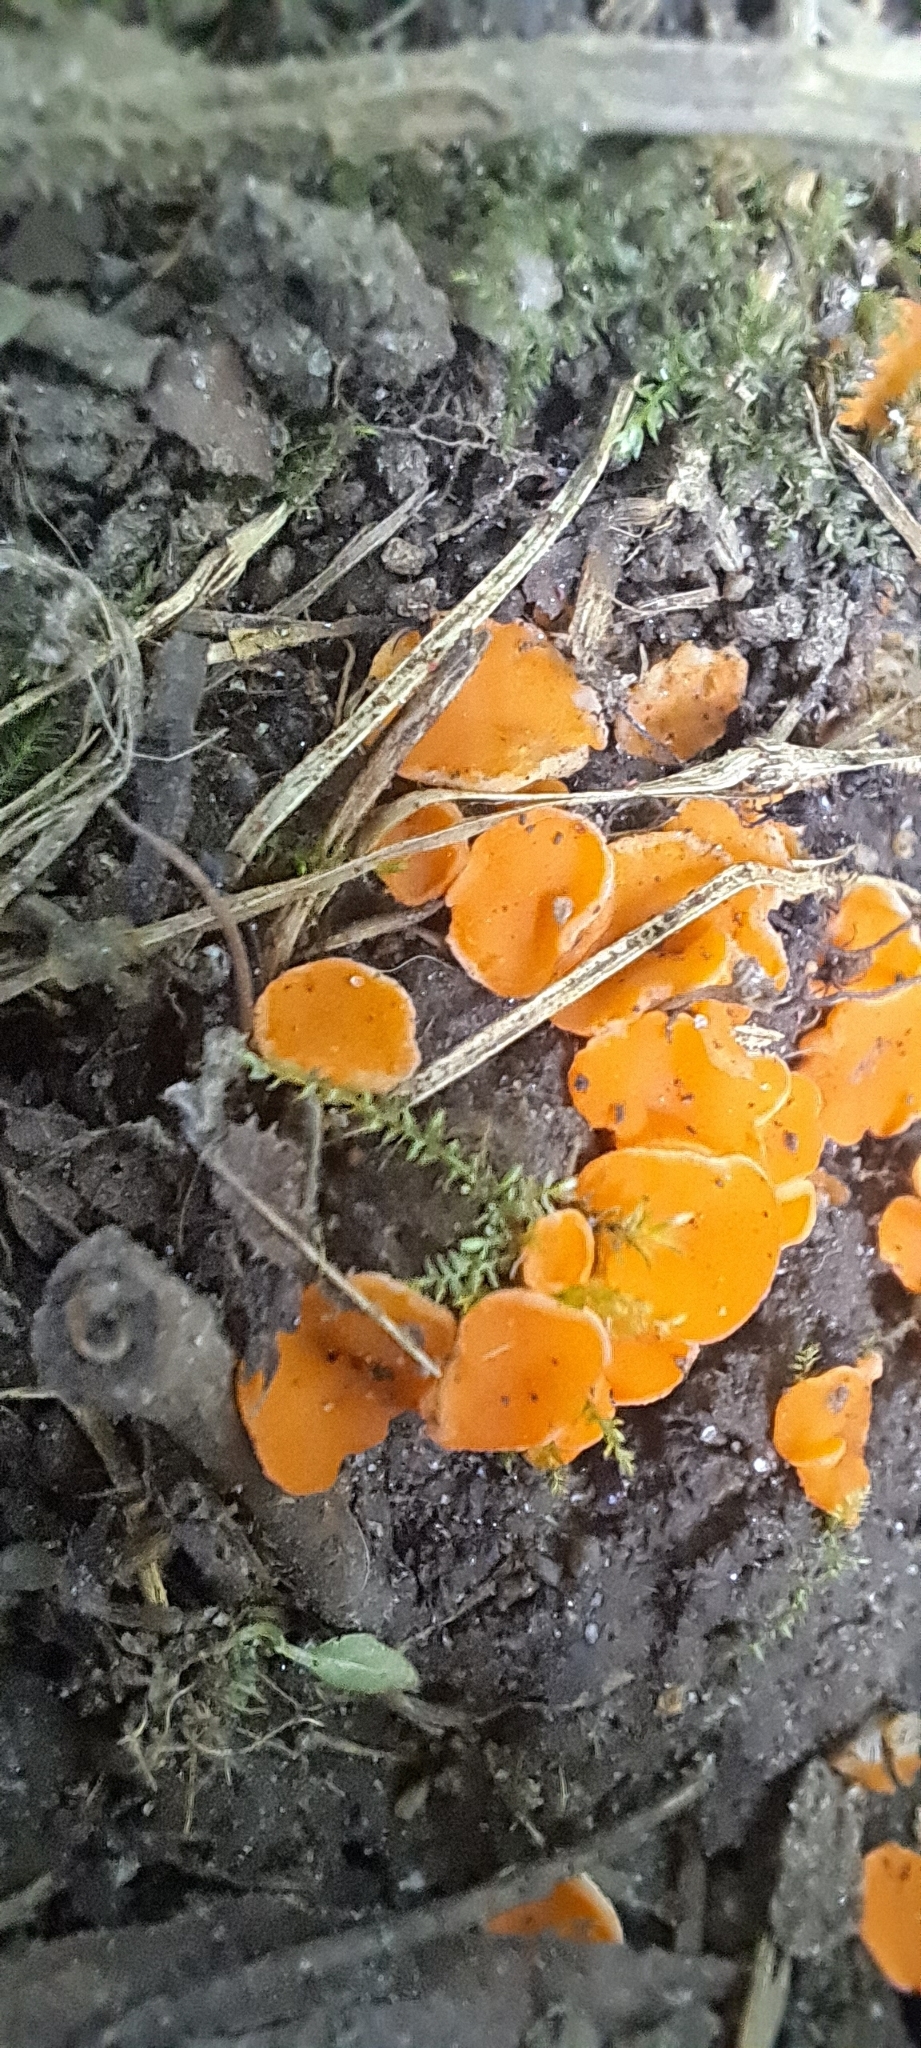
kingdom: Fungi
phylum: Ascomycota
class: Pezizomycetes
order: Pezizales
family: Pyronemataceae
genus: Aleuria
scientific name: Aleuria aurantia
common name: Orange peel fungus
